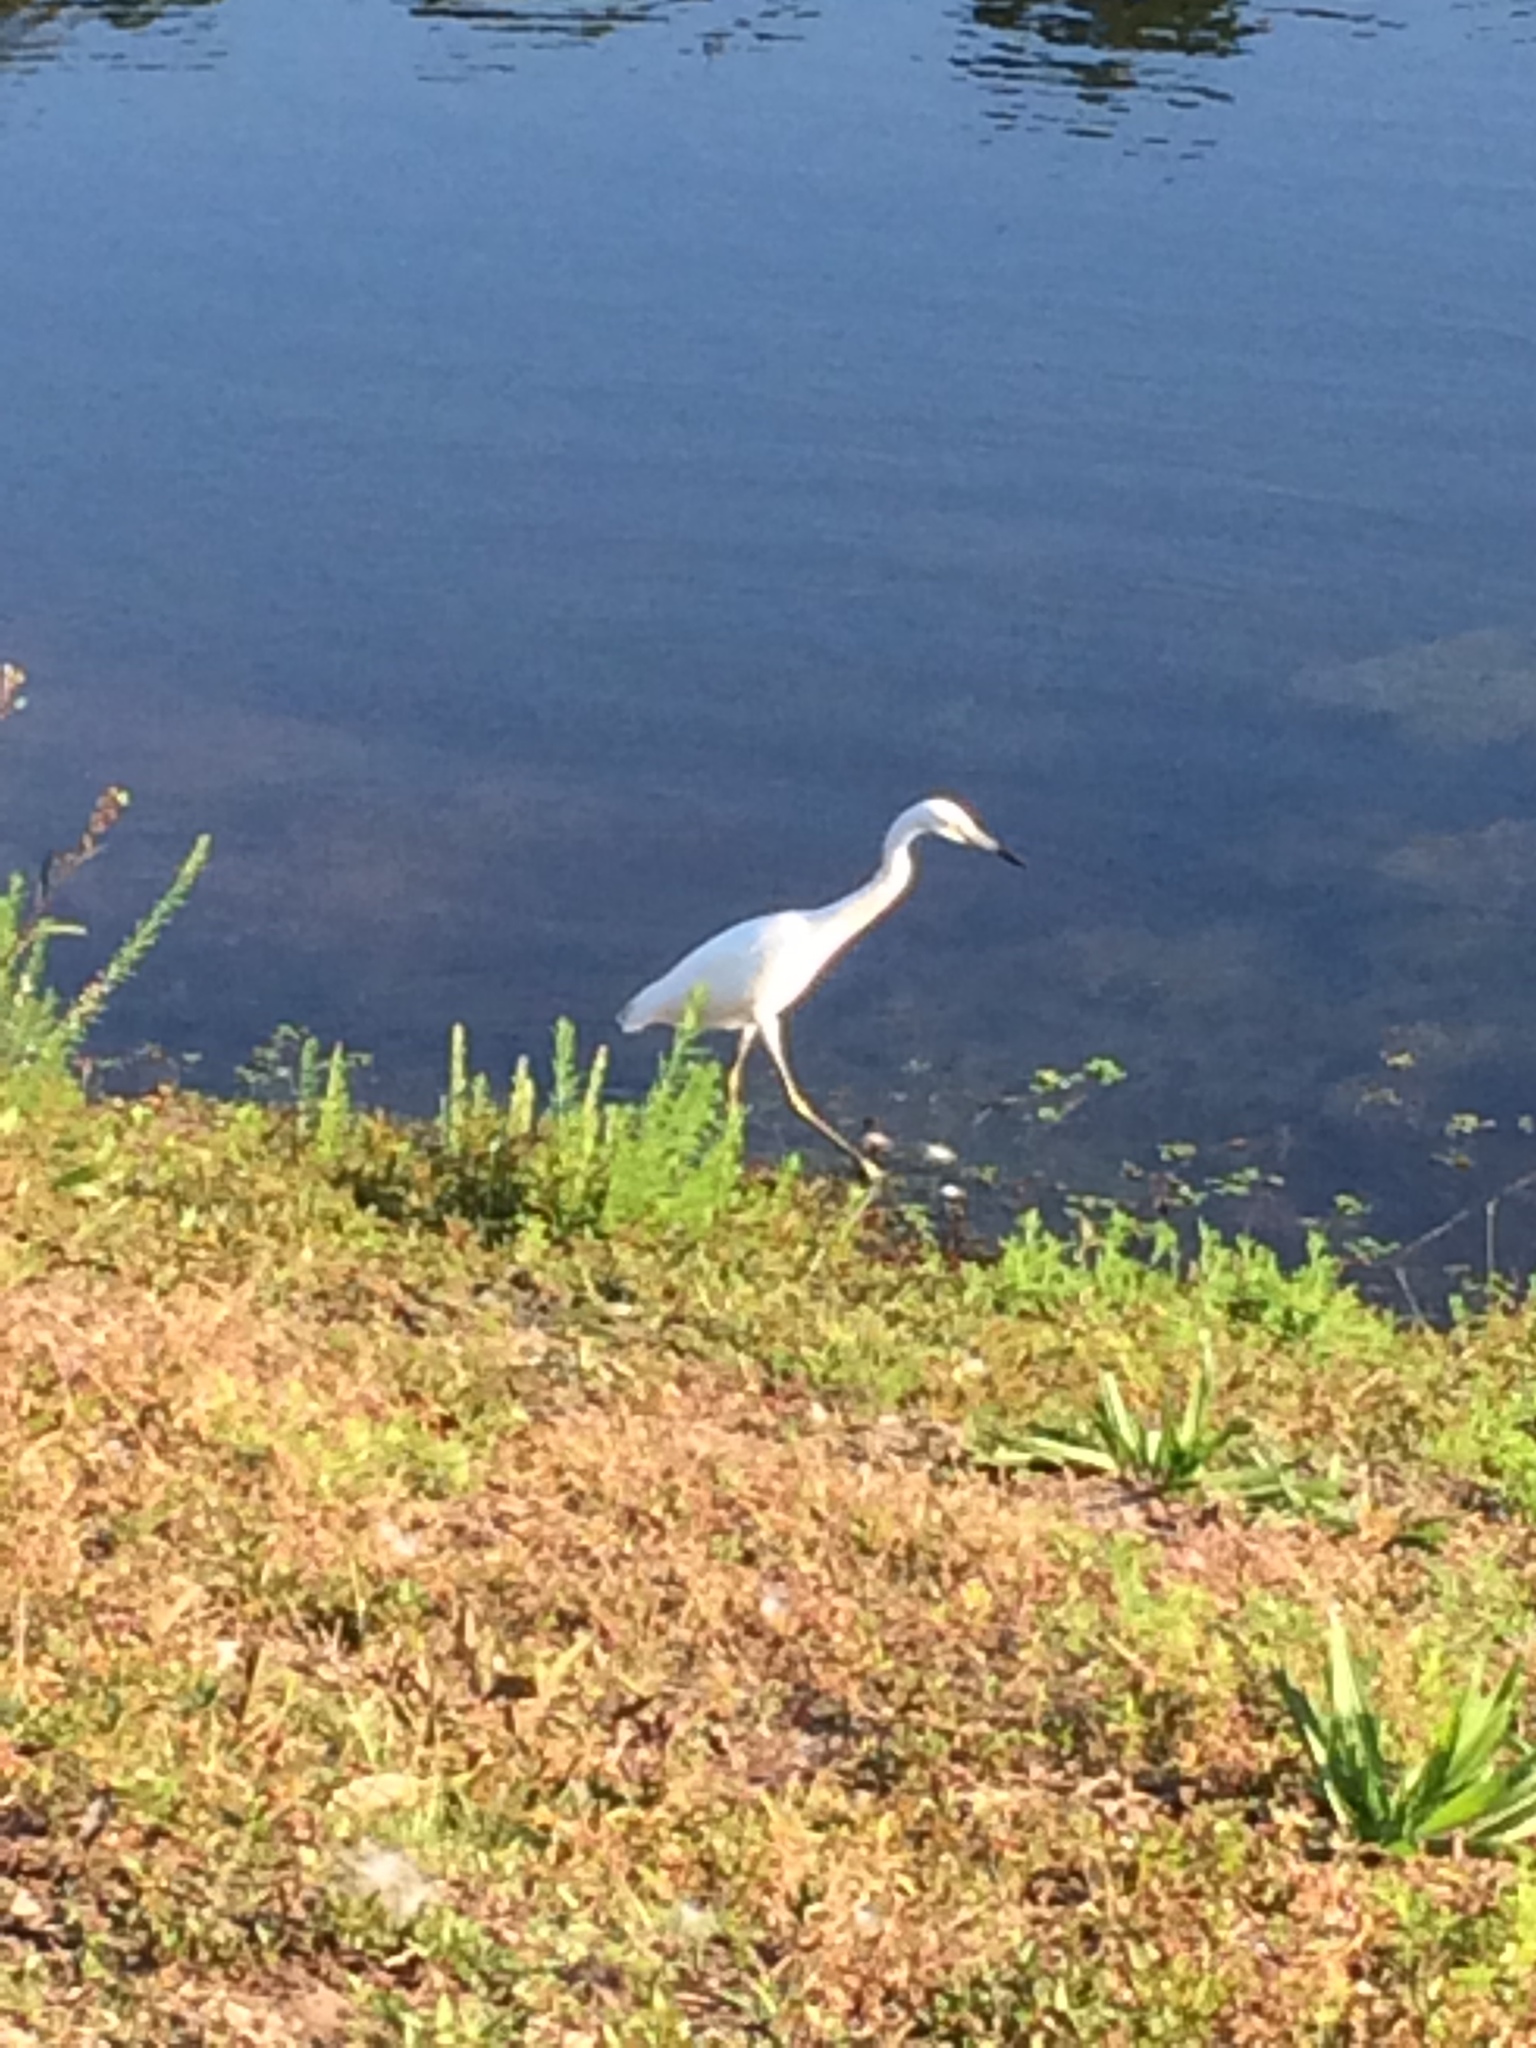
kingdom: Animalia
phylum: Chordata
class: Aves
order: Pelecaniformes
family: Ardeidae
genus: Egretta
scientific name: Egretta caerulea
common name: Little blue heron
